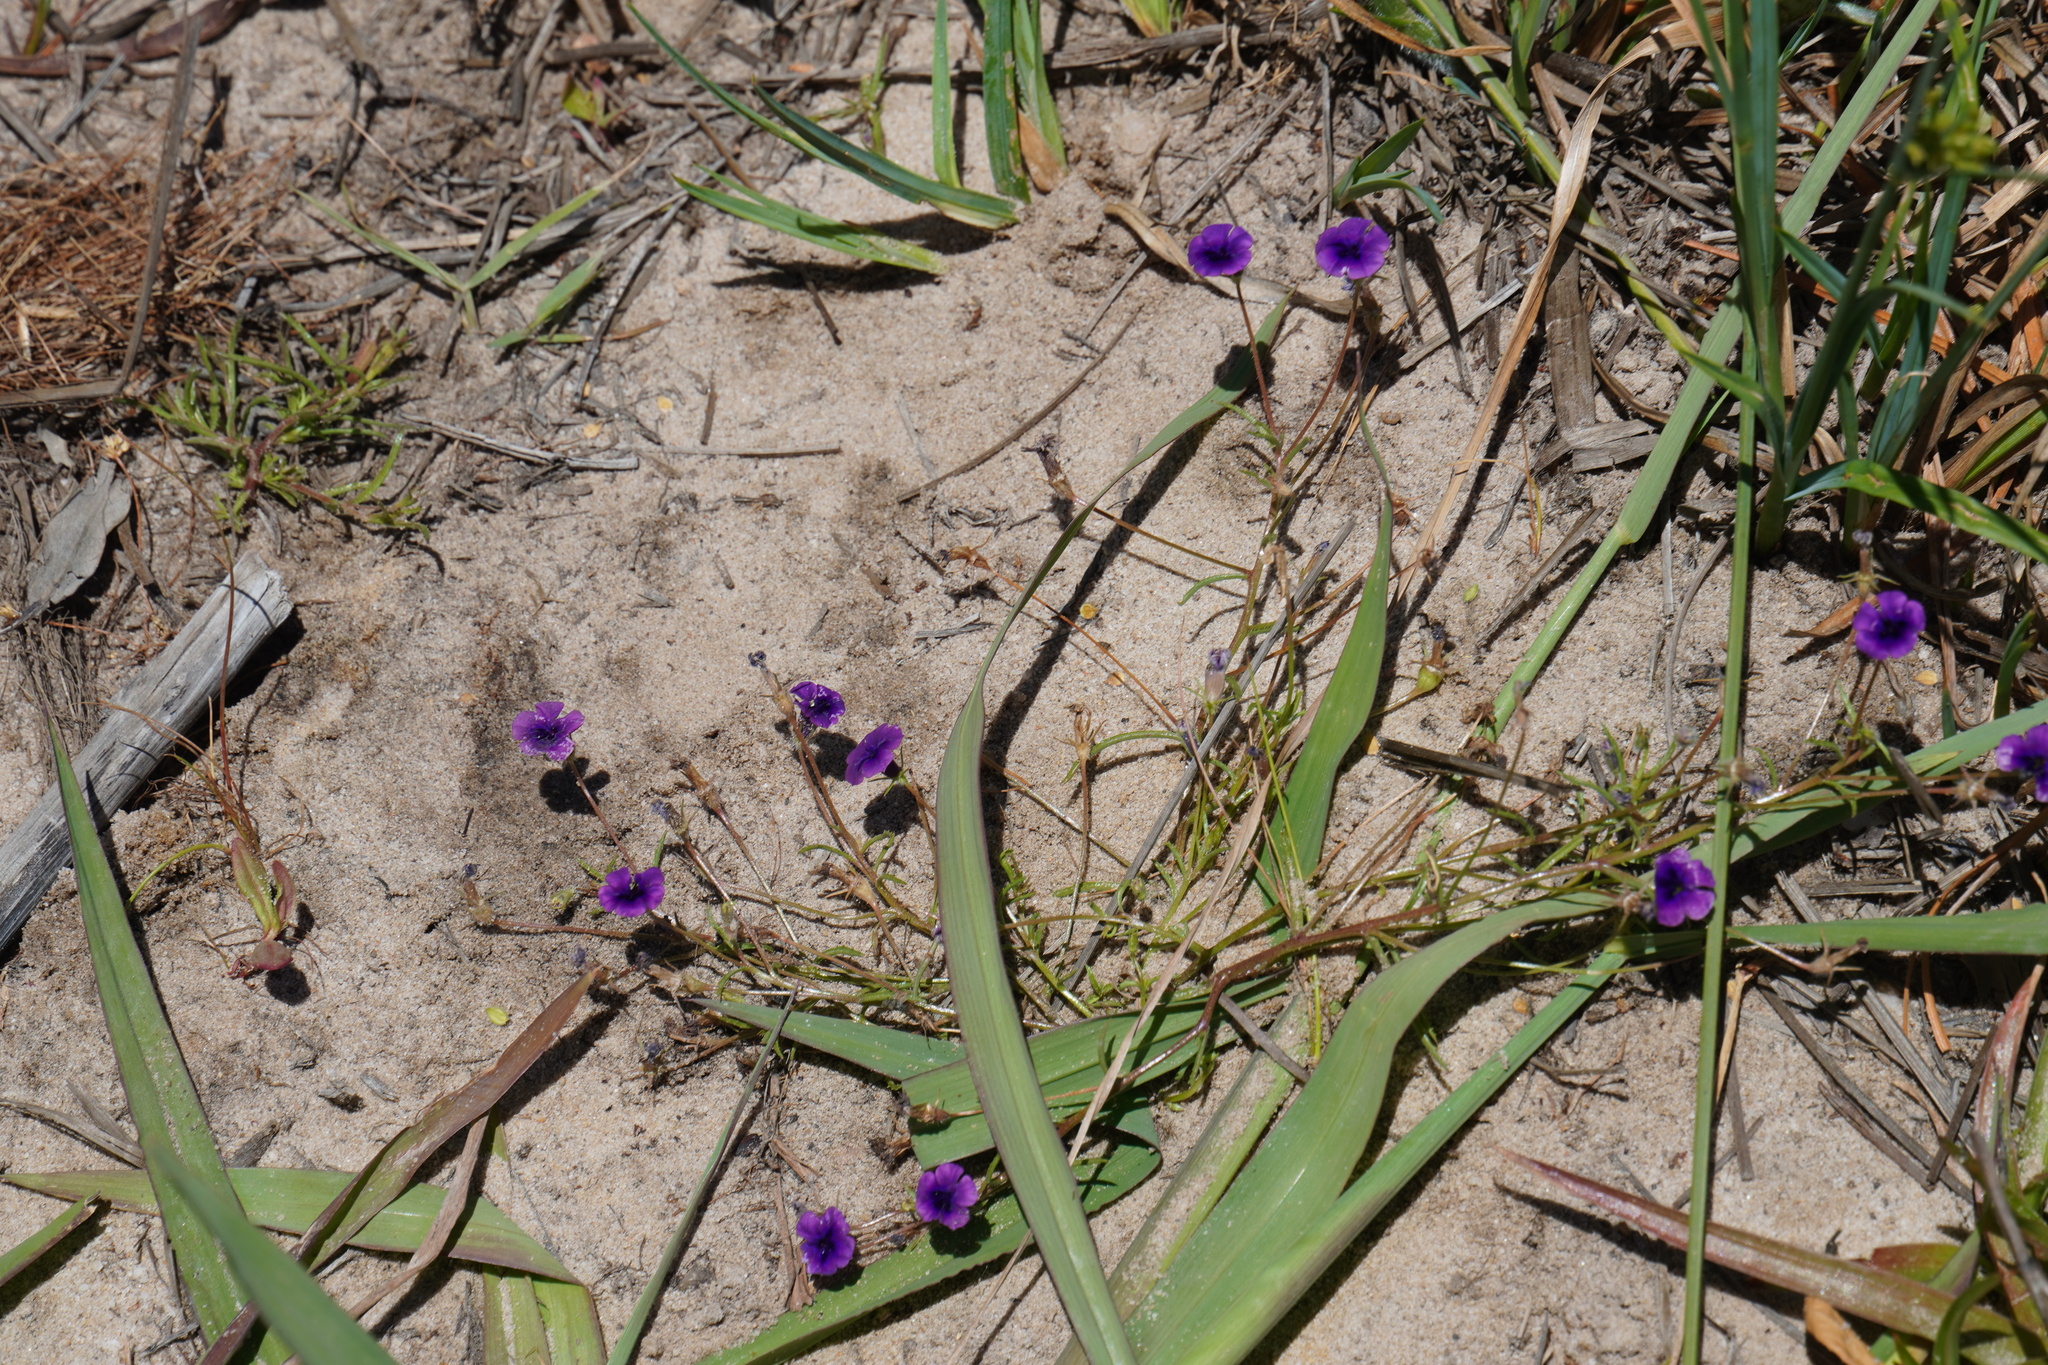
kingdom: Plantae
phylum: Tracheophyta
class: Magnoliopsida
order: Asterales
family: Campanulaceae
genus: Monopsis
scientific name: Monopsis debilis
